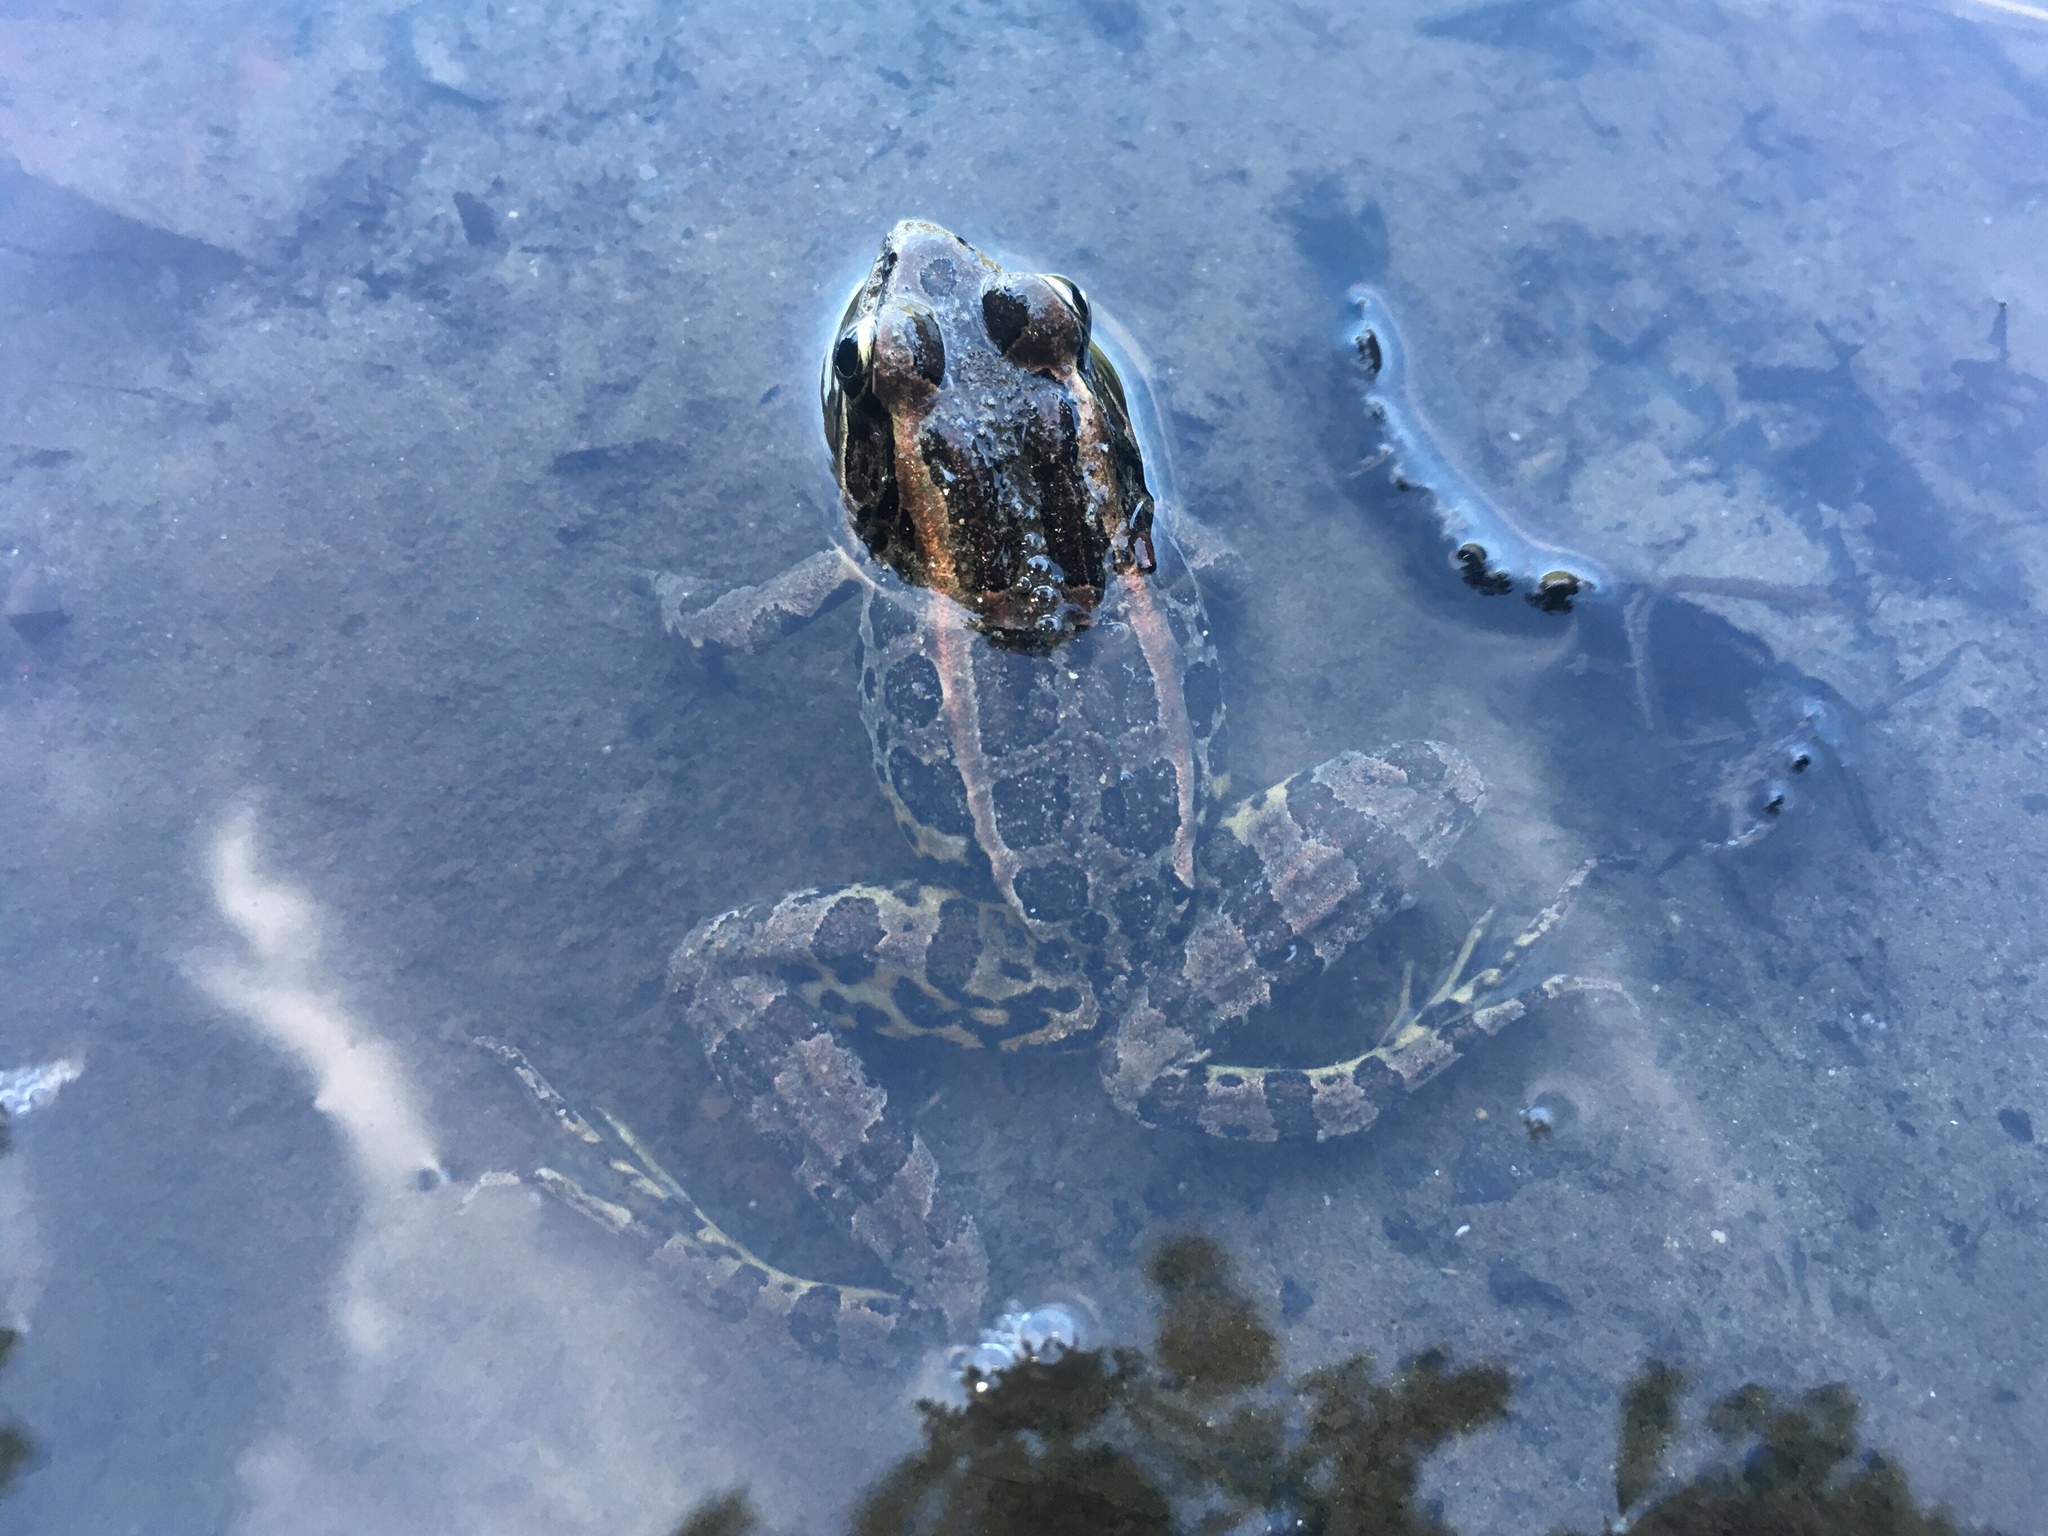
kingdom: Animalia
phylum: Chordata
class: Amphibia
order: Anura
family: Ranidae
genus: Lithobates
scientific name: Lithobates palustris
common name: Pickerel frog
